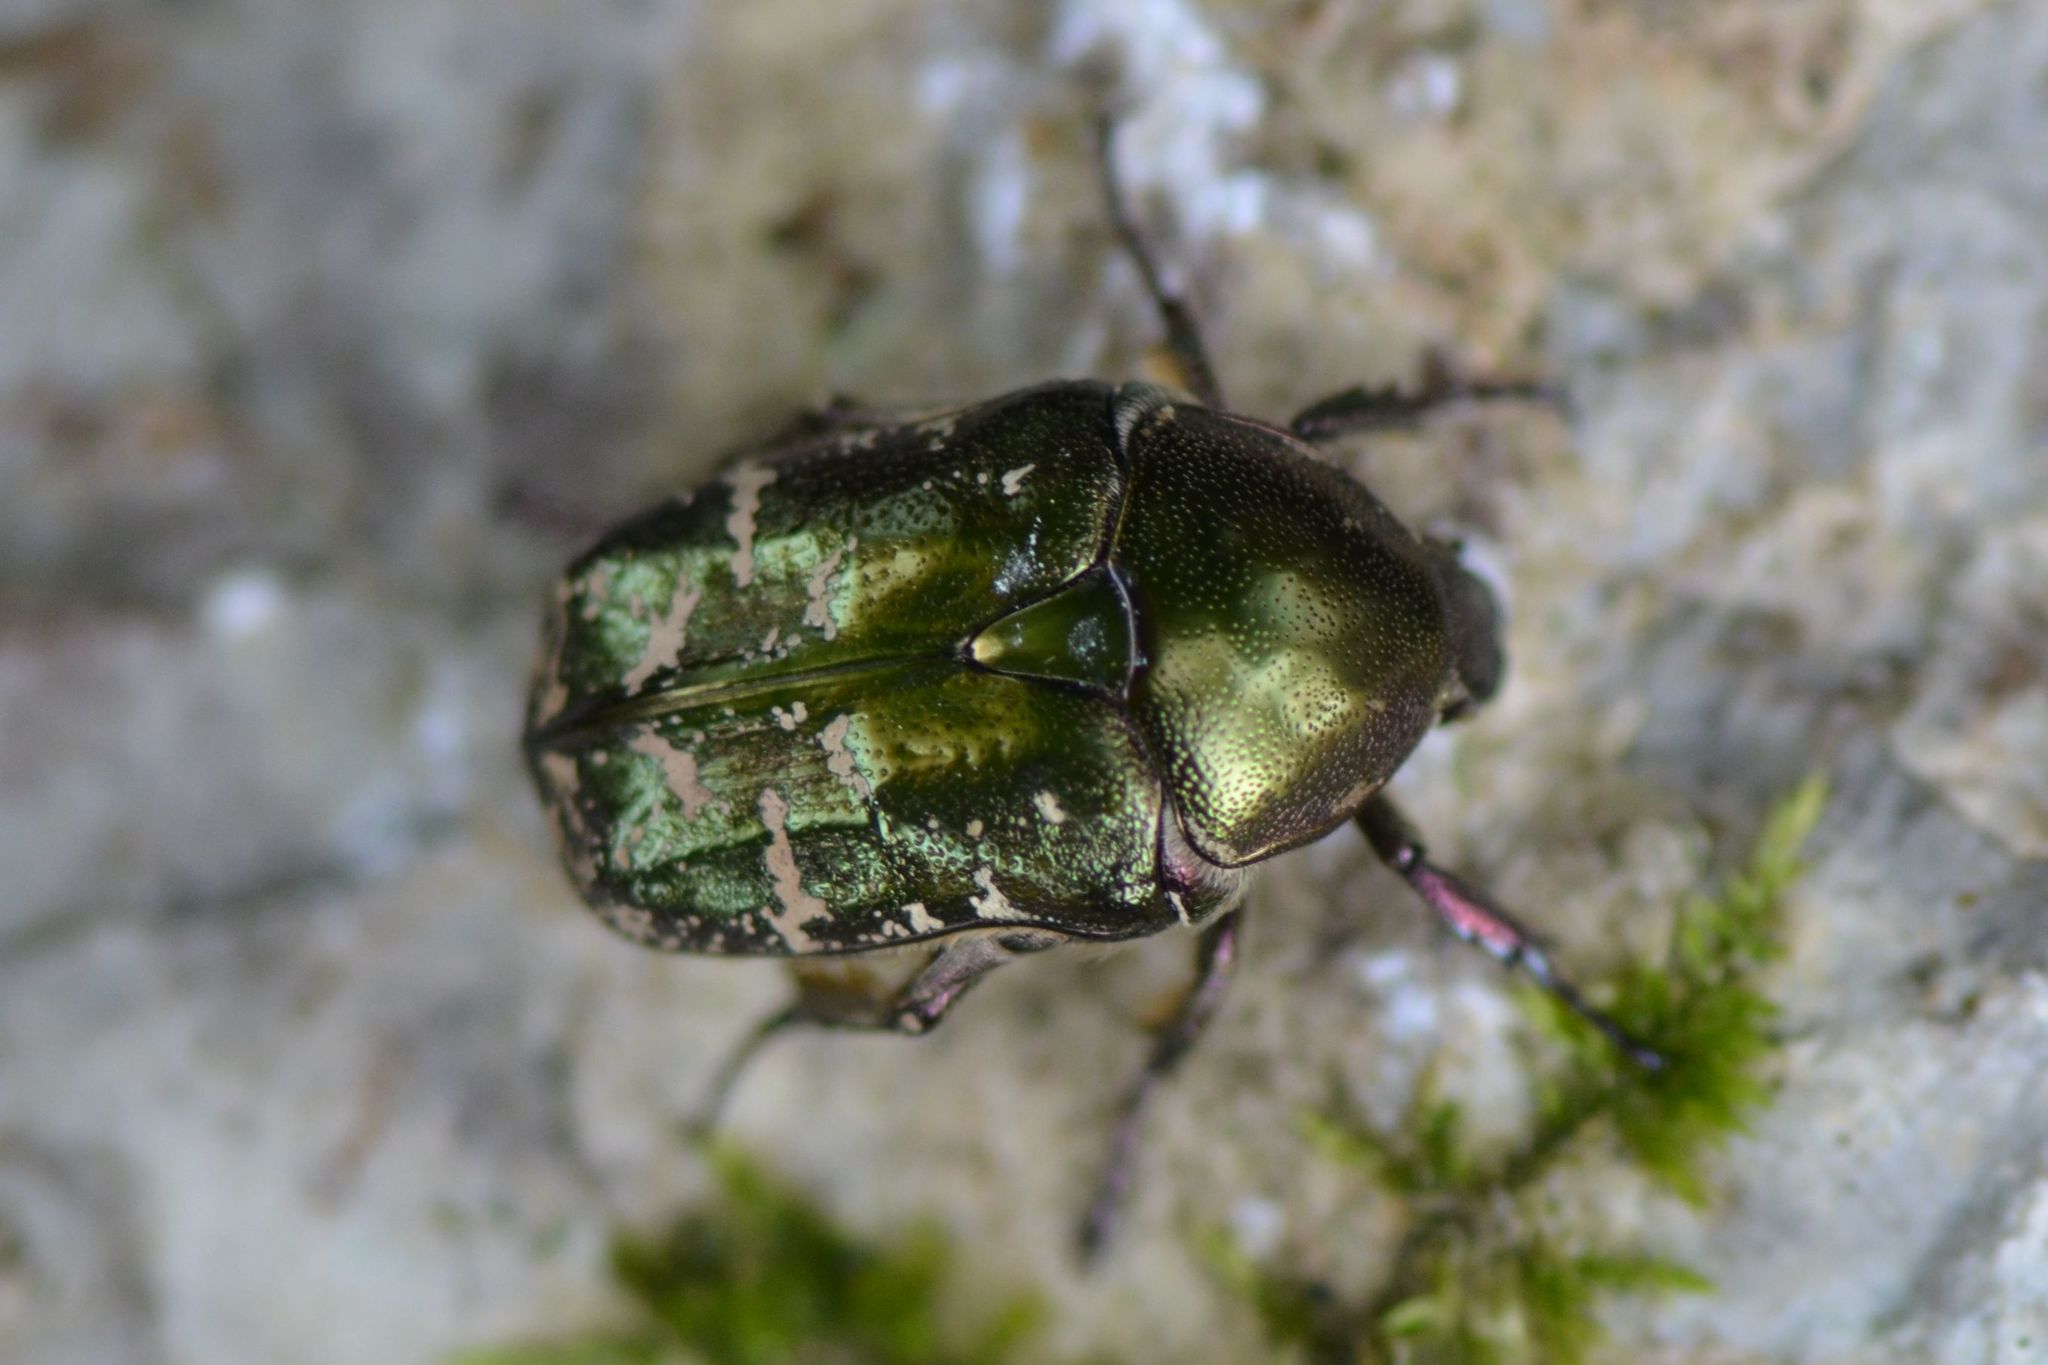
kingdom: Animalia
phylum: Arthropoda
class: Insecta
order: Coleoptera
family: Scarabaeidae
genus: Protaetia
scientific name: Protaetia cuprea
